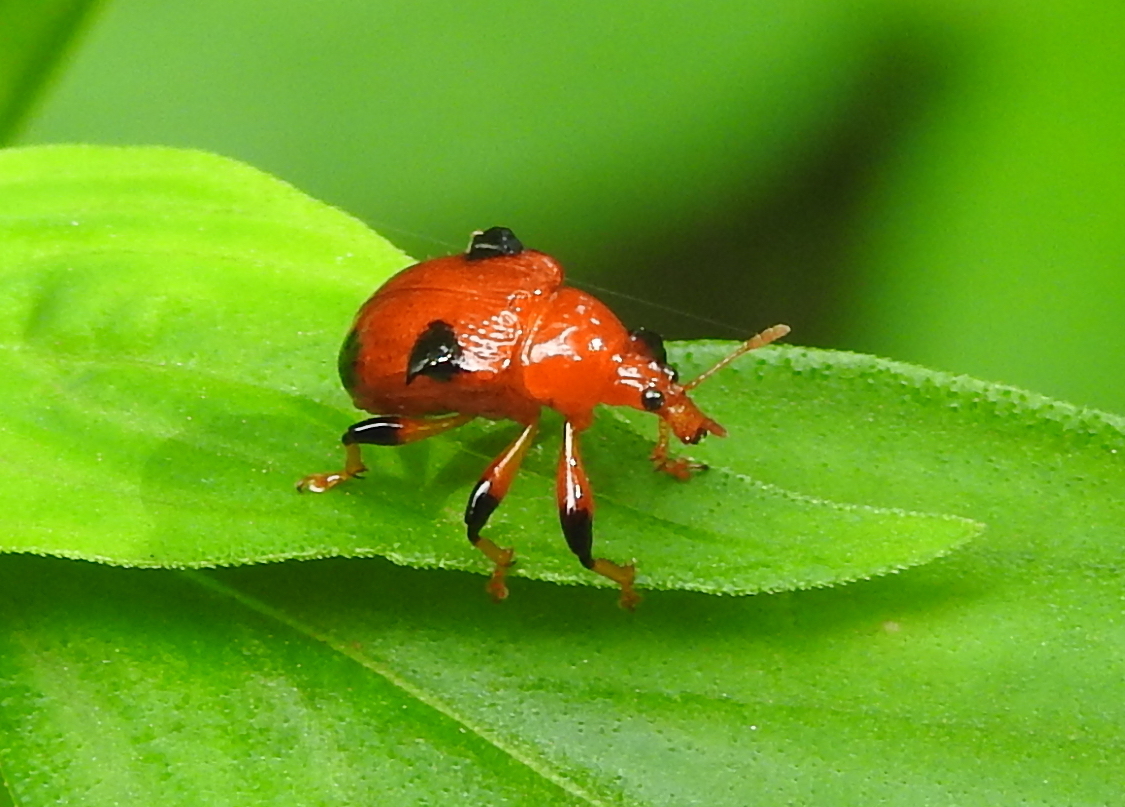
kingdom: Animalia
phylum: Arthropoda
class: Insecta
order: Coleoptera
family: Attelabidae
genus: Lamprolabus
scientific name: Lamprolabus bispinosus
